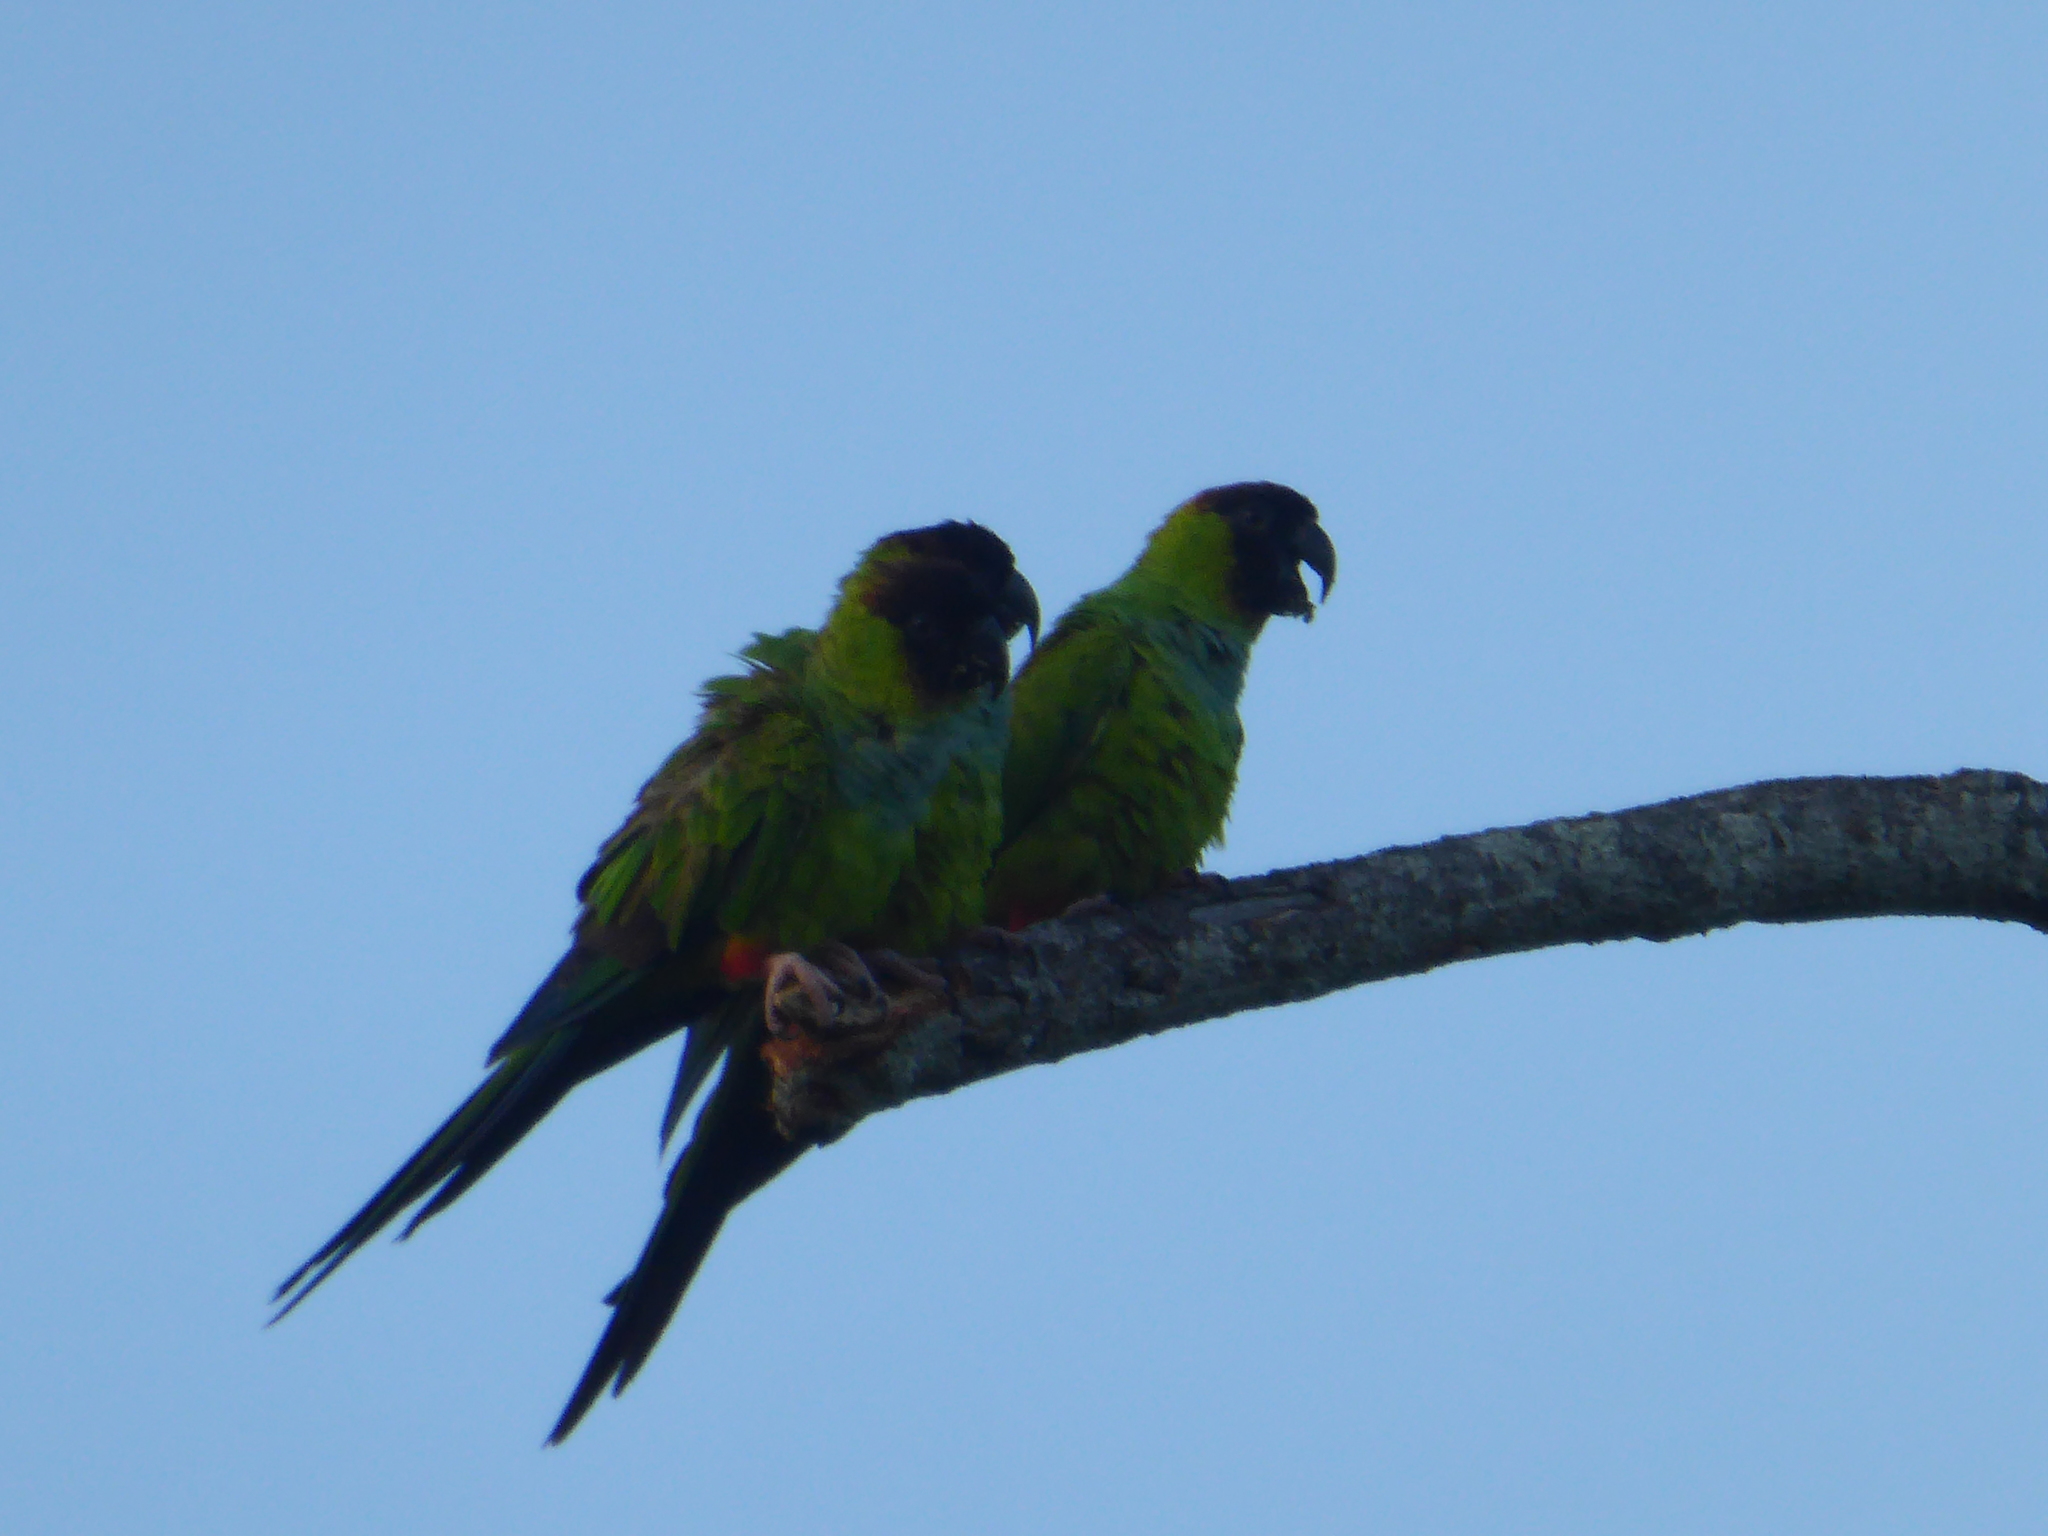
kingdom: Animalia
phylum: Chordata
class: Aves
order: Psittaciformes
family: Psittacidae
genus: Nandayus
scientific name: Nandayus nenday
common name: Nanday parakeet
